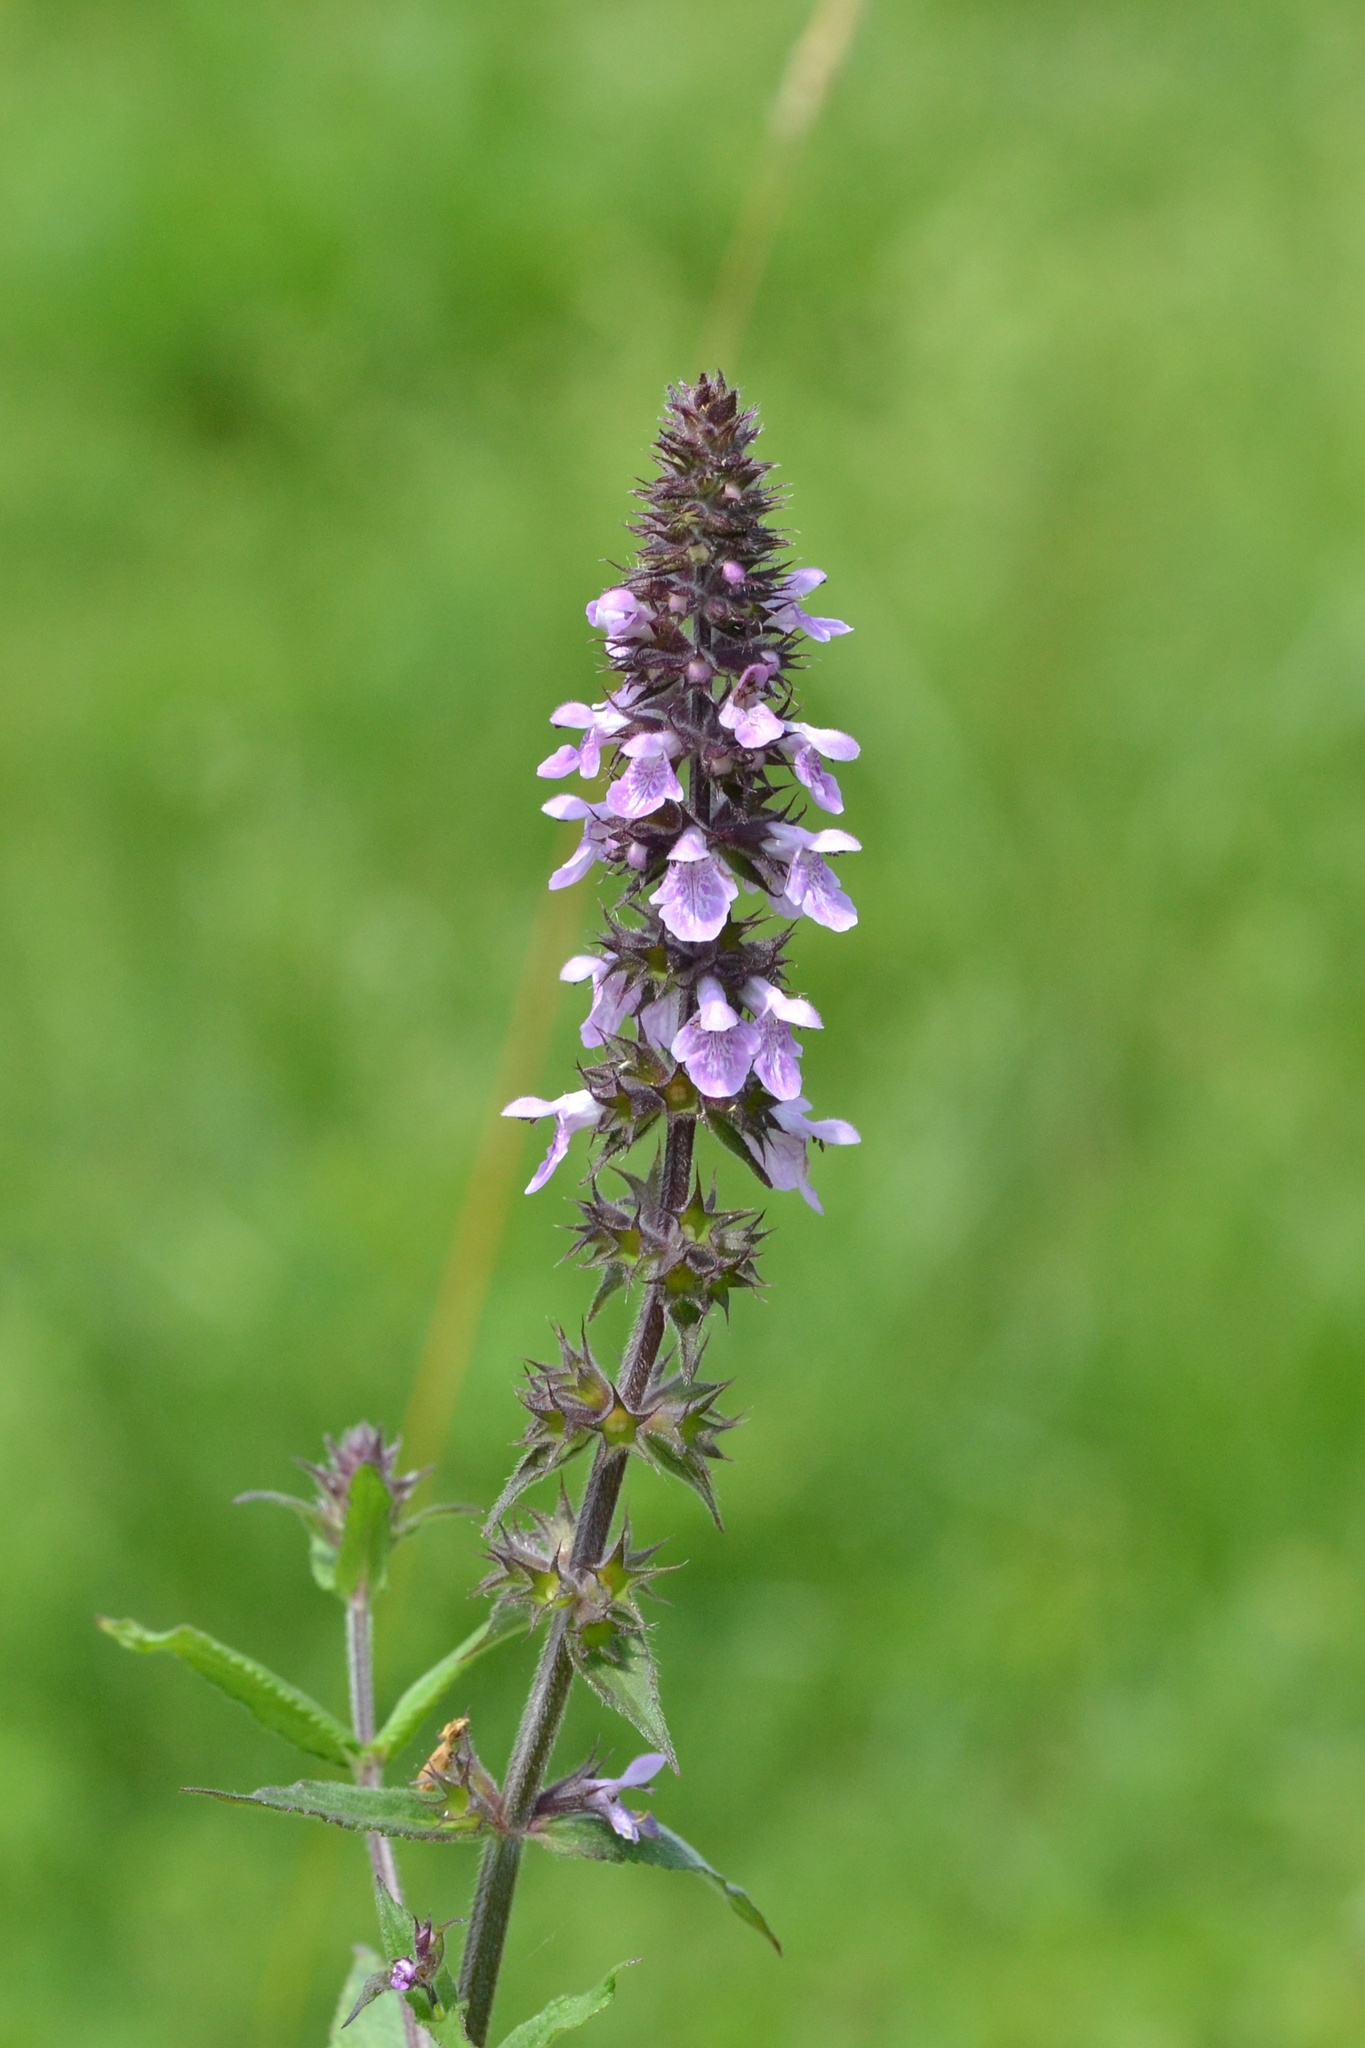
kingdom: Plantae
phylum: Tracheophyta
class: Magnoliopsida
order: Lamiales
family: Lamiaceae
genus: Stachys
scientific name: Stachys palustris
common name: Marsh woundwort
